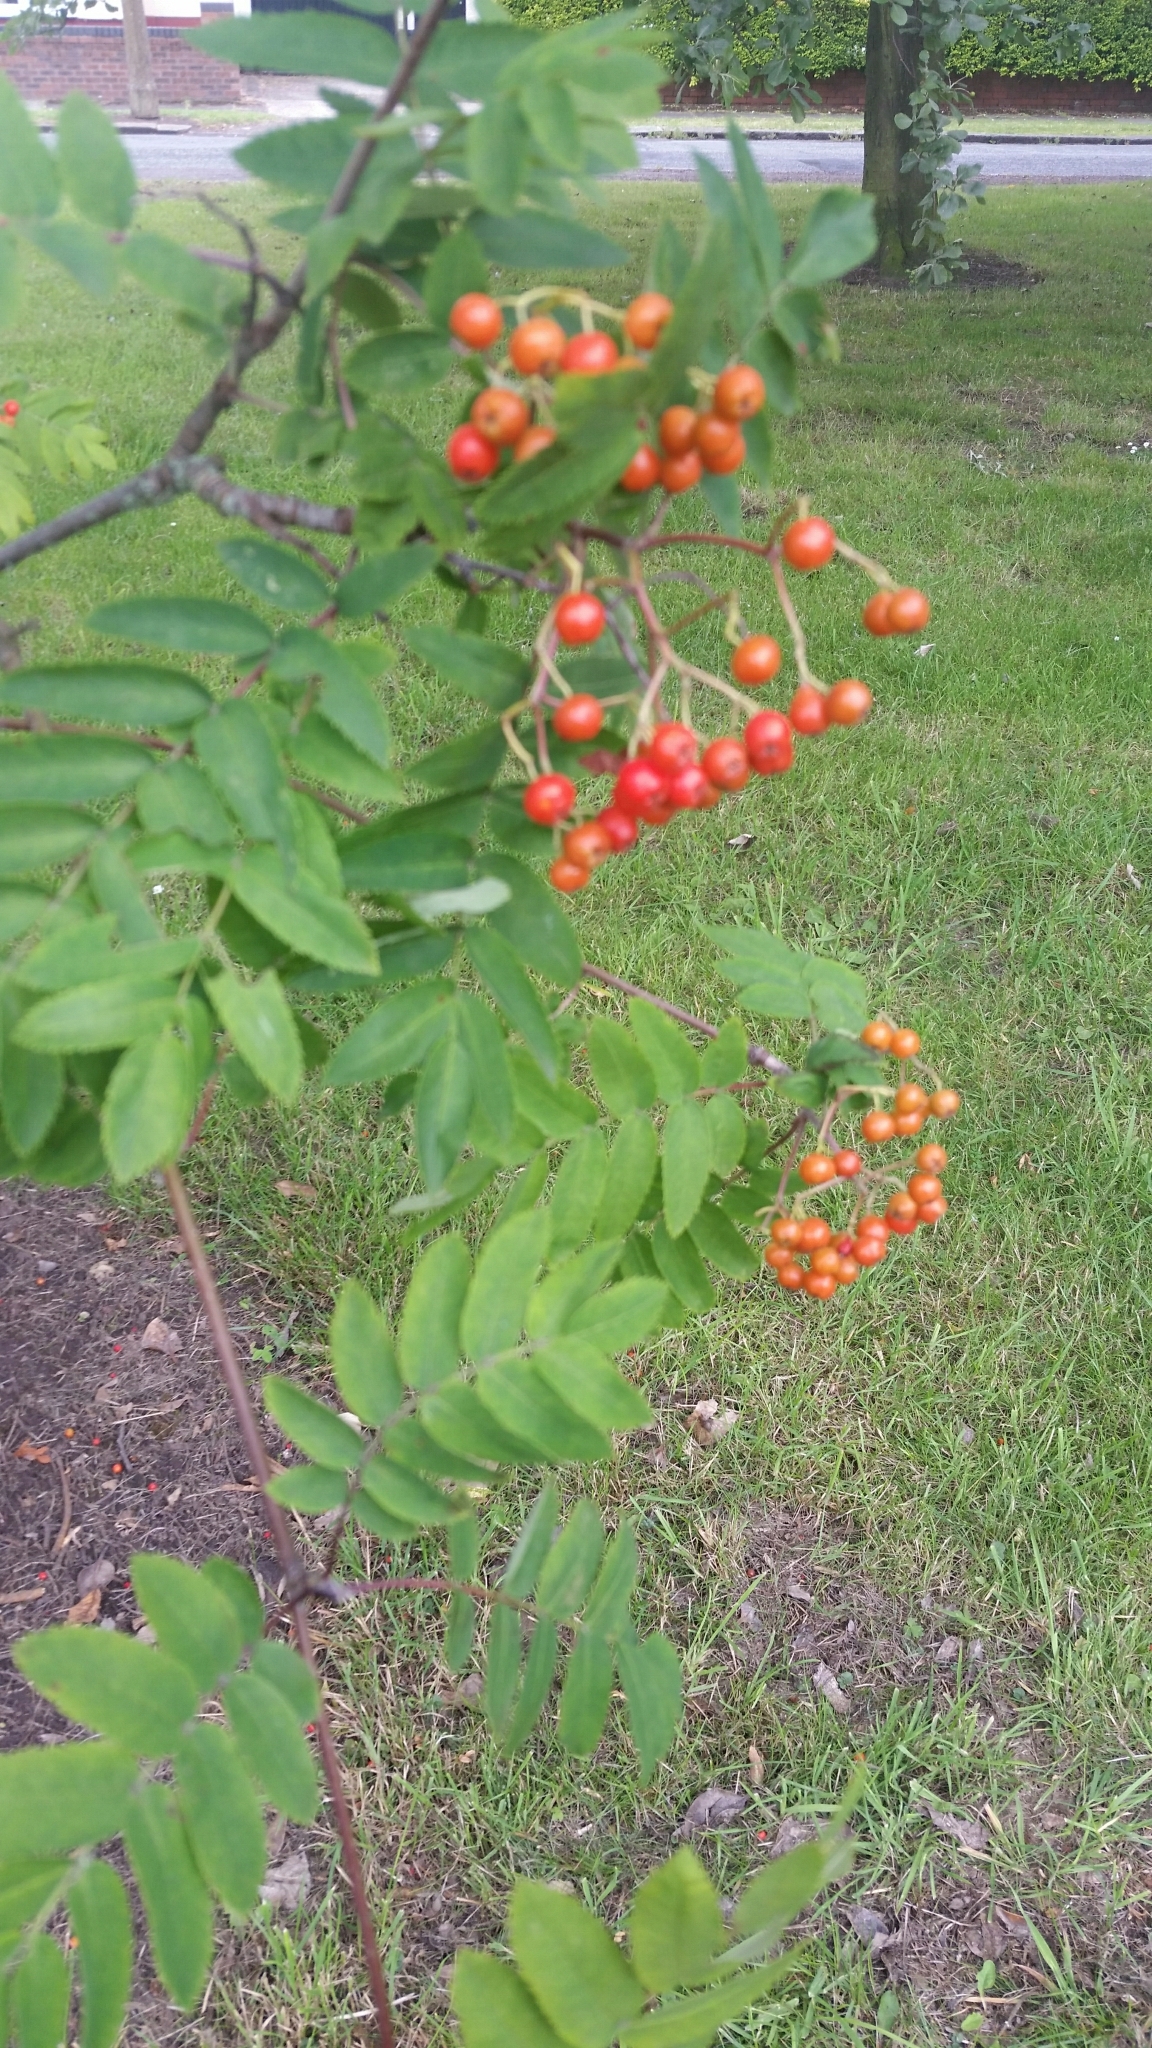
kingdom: Plantae
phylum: Tracheophyta
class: Magnoliopsida
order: Rosales
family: Rosaceae
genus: Sorbus
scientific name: Sorbus aucuparia
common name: Rowan
